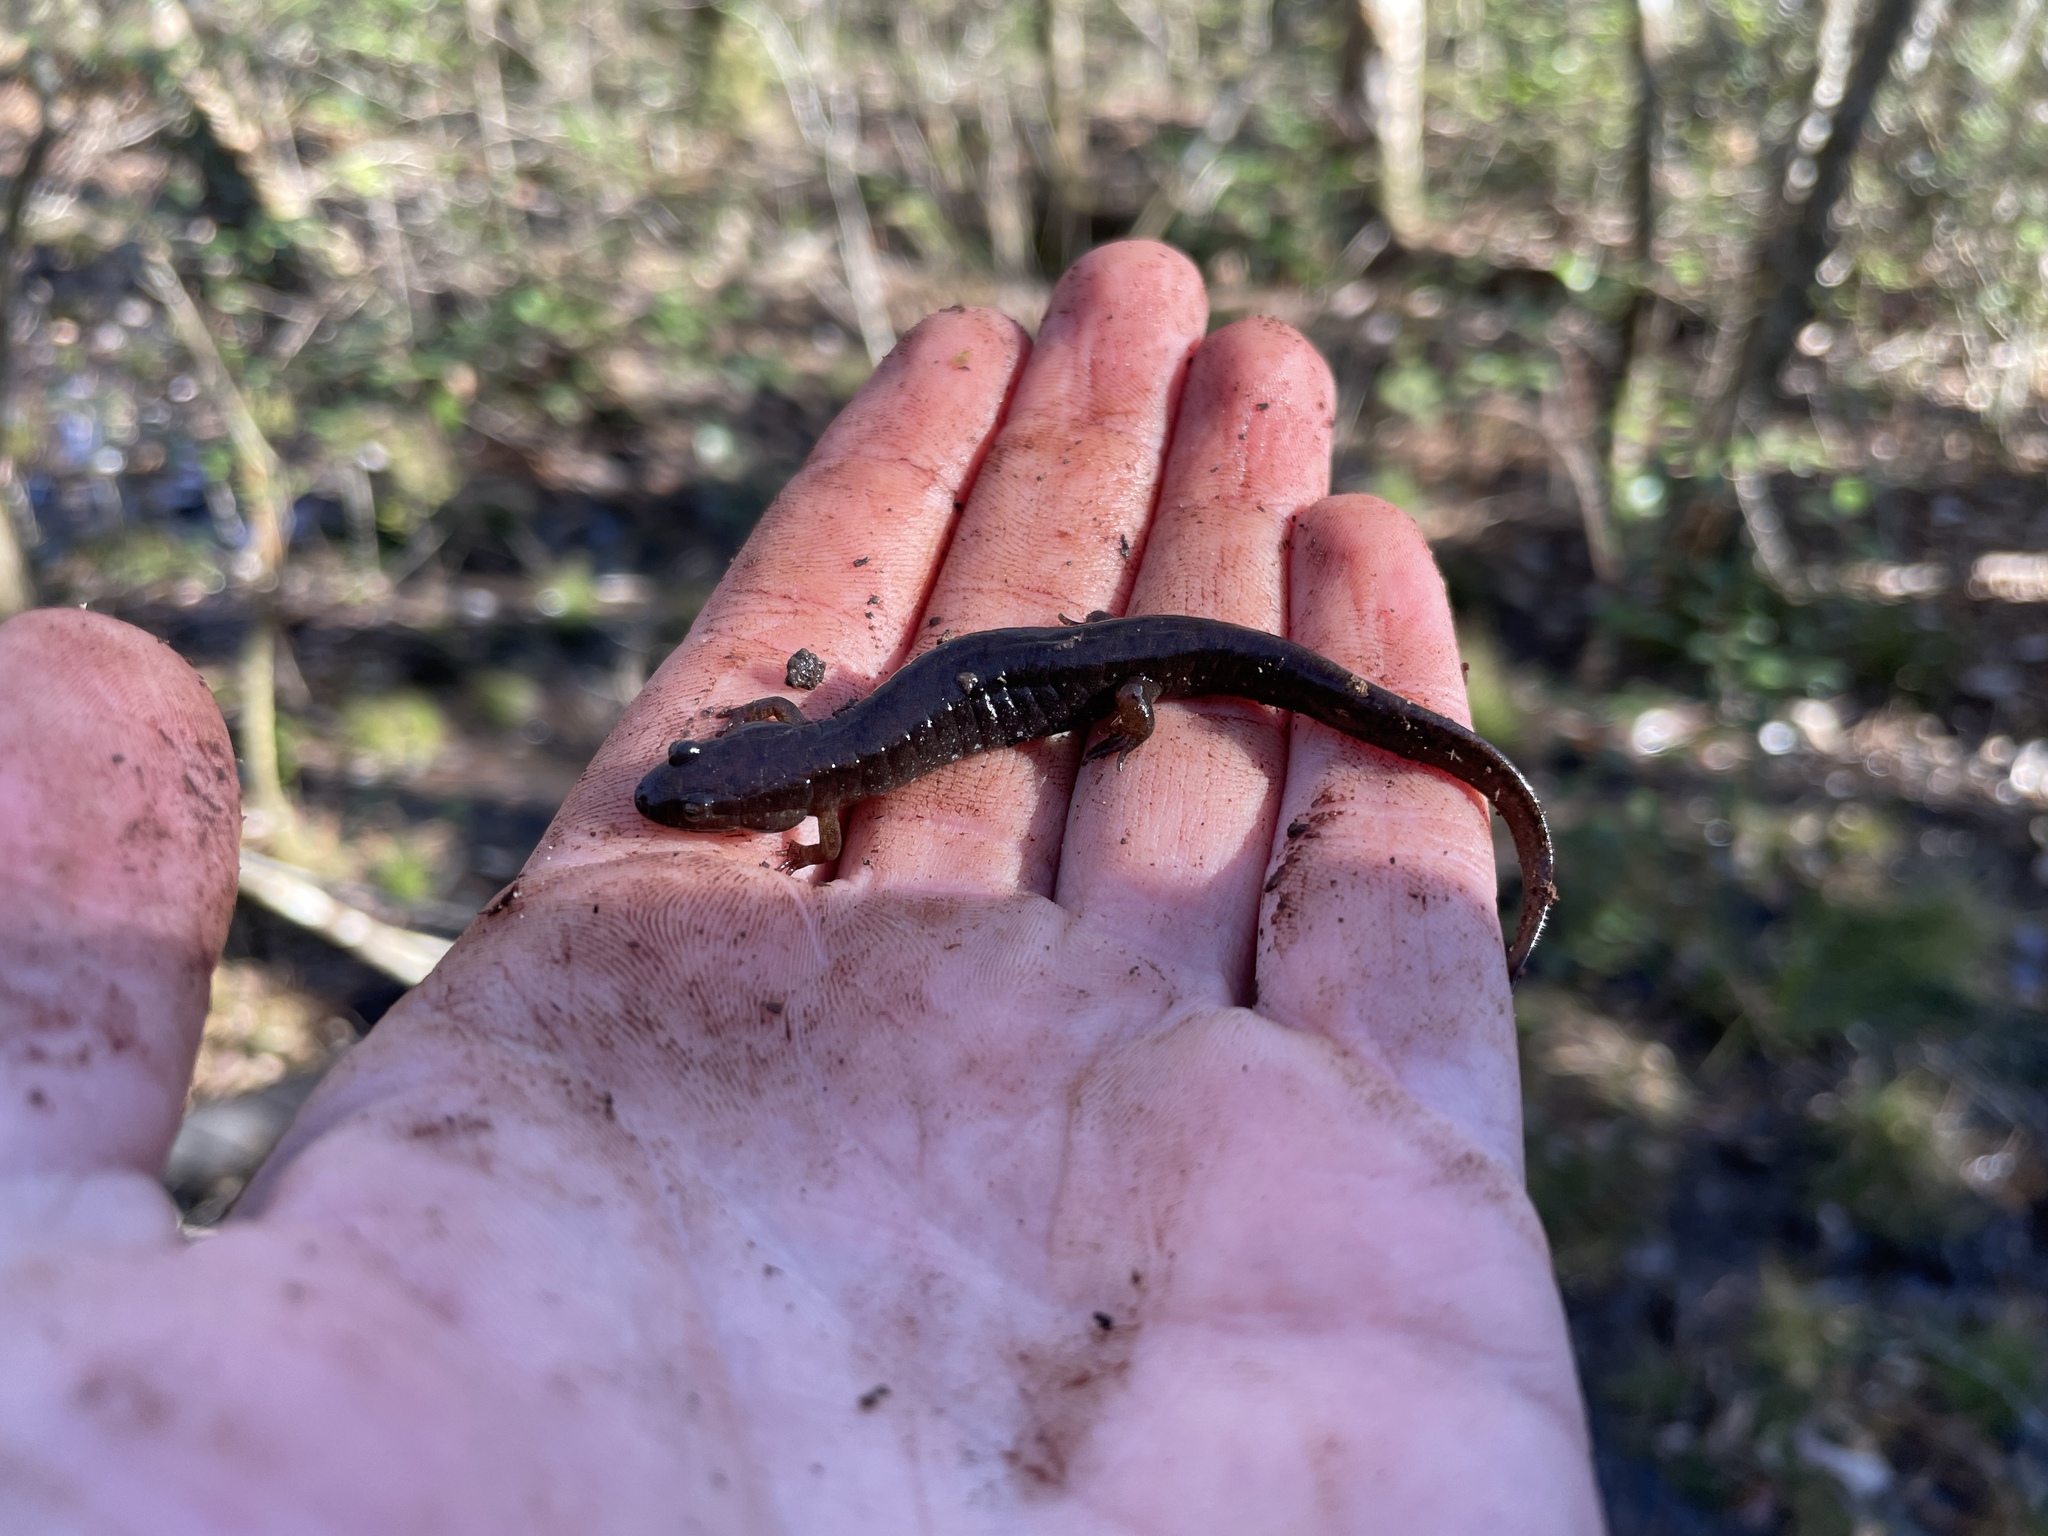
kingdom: Animalia
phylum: Chordata
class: Amphibia
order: Caudata
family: Plethodontidae
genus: Desmognathus
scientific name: Desmognathus conanti
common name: Spotted dusky salamander
